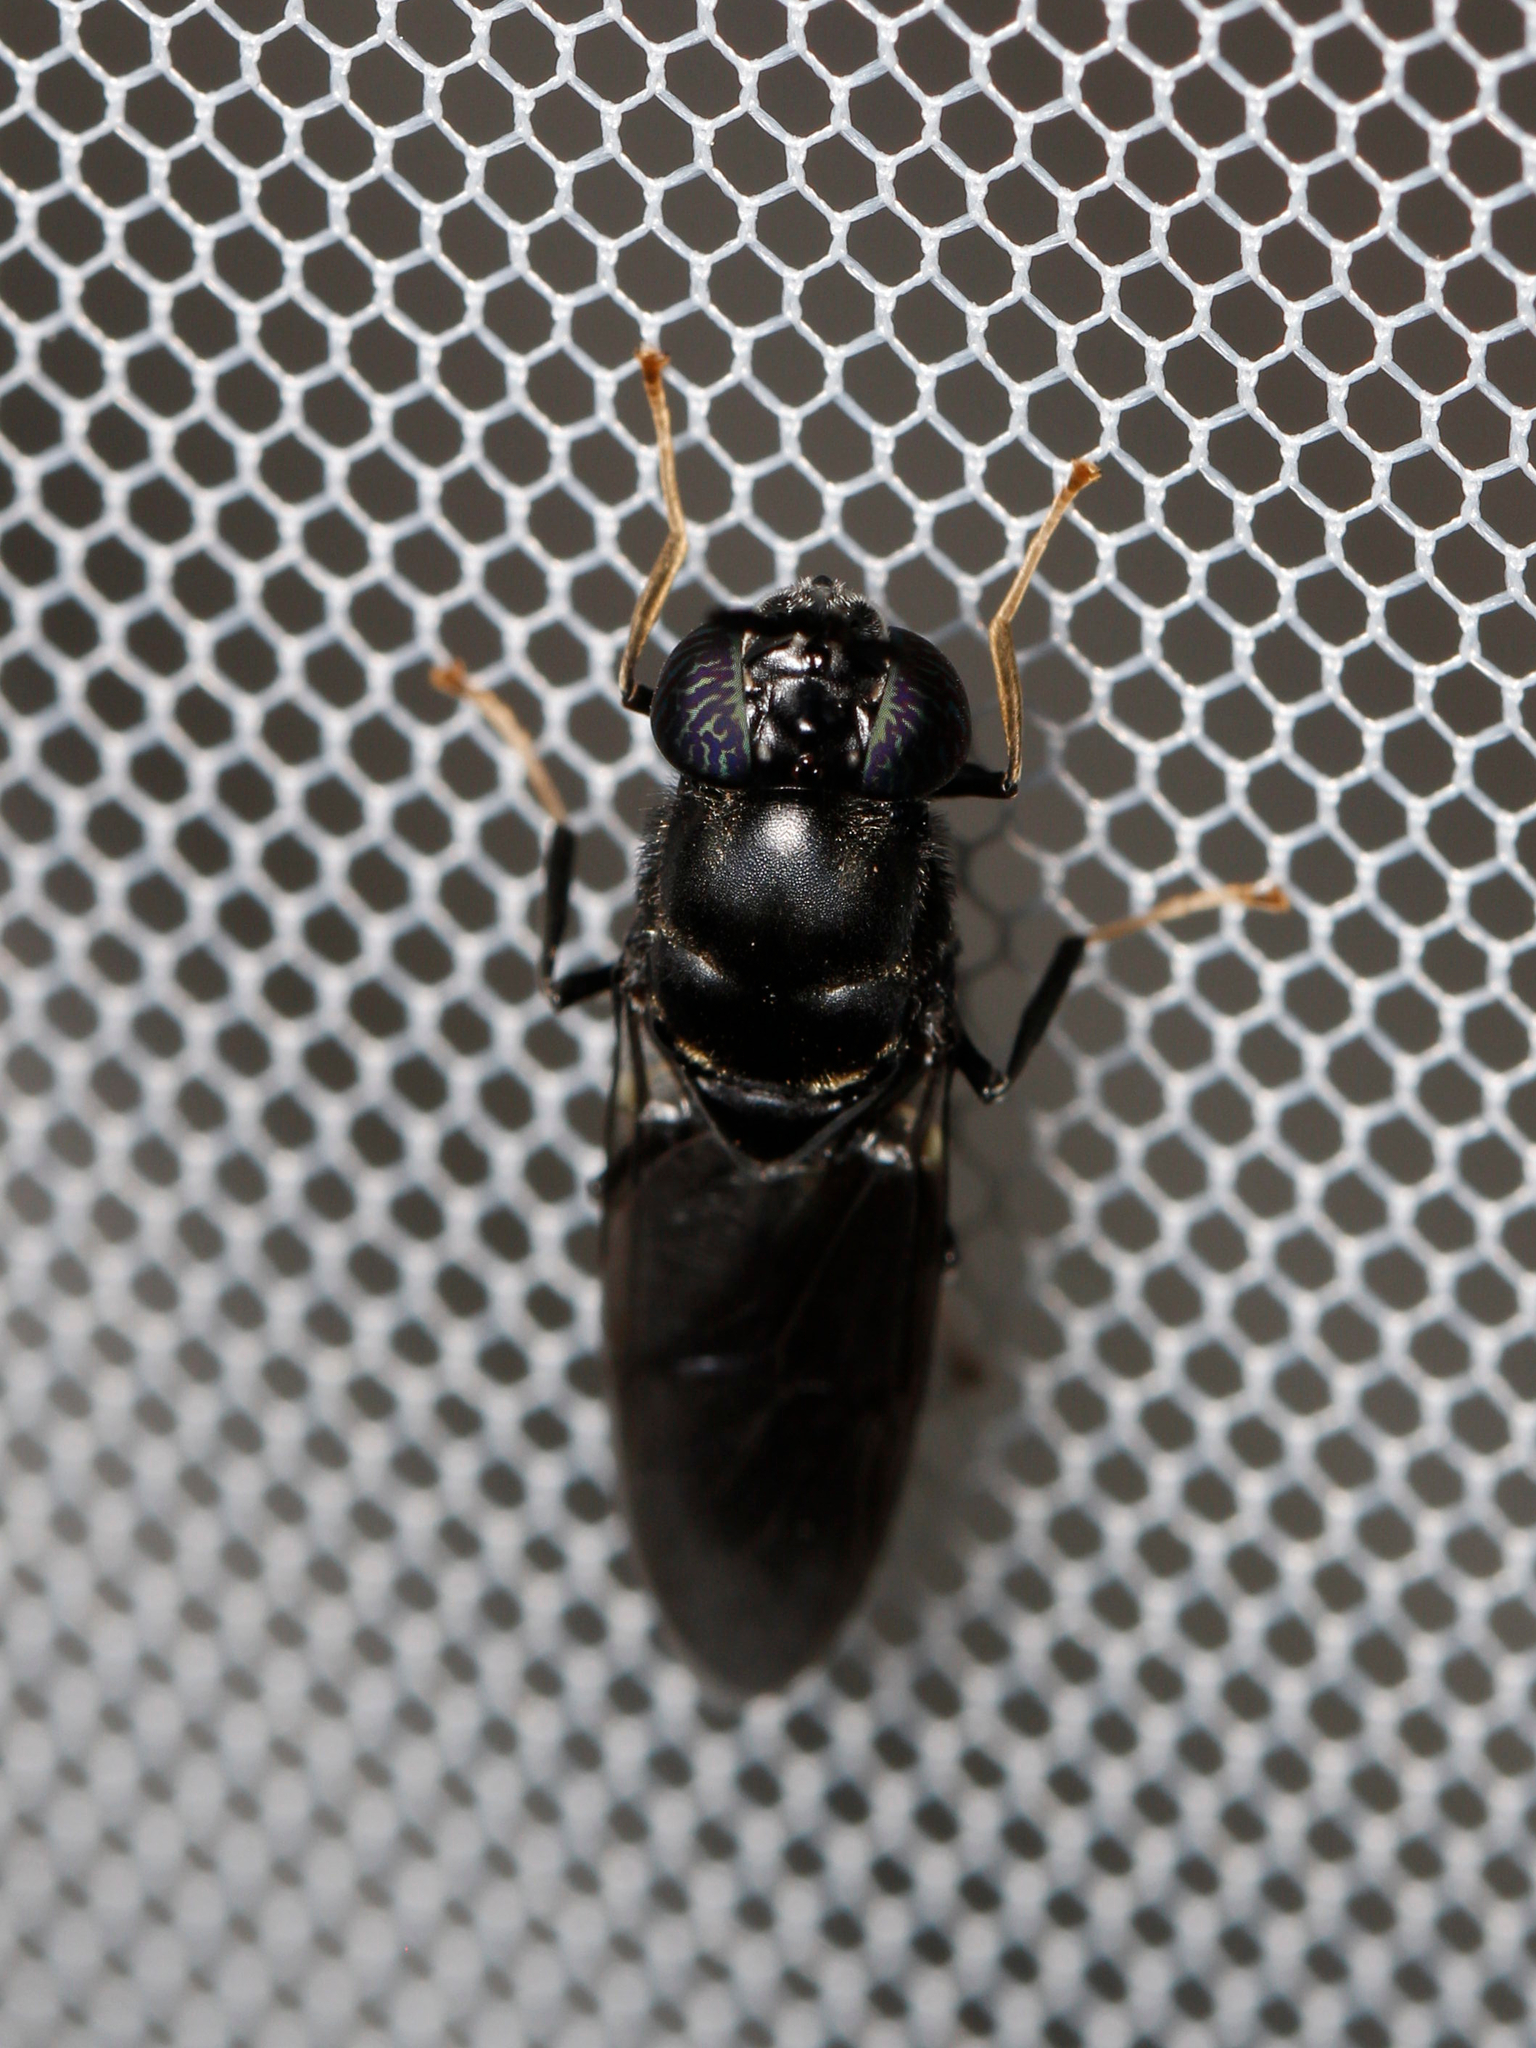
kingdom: Animalia
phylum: Arthropoda
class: Insecta
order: Diptera
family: Stratiomyidae
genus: Hermetia
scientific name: Hermetia illucens
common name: Black soldier fly
